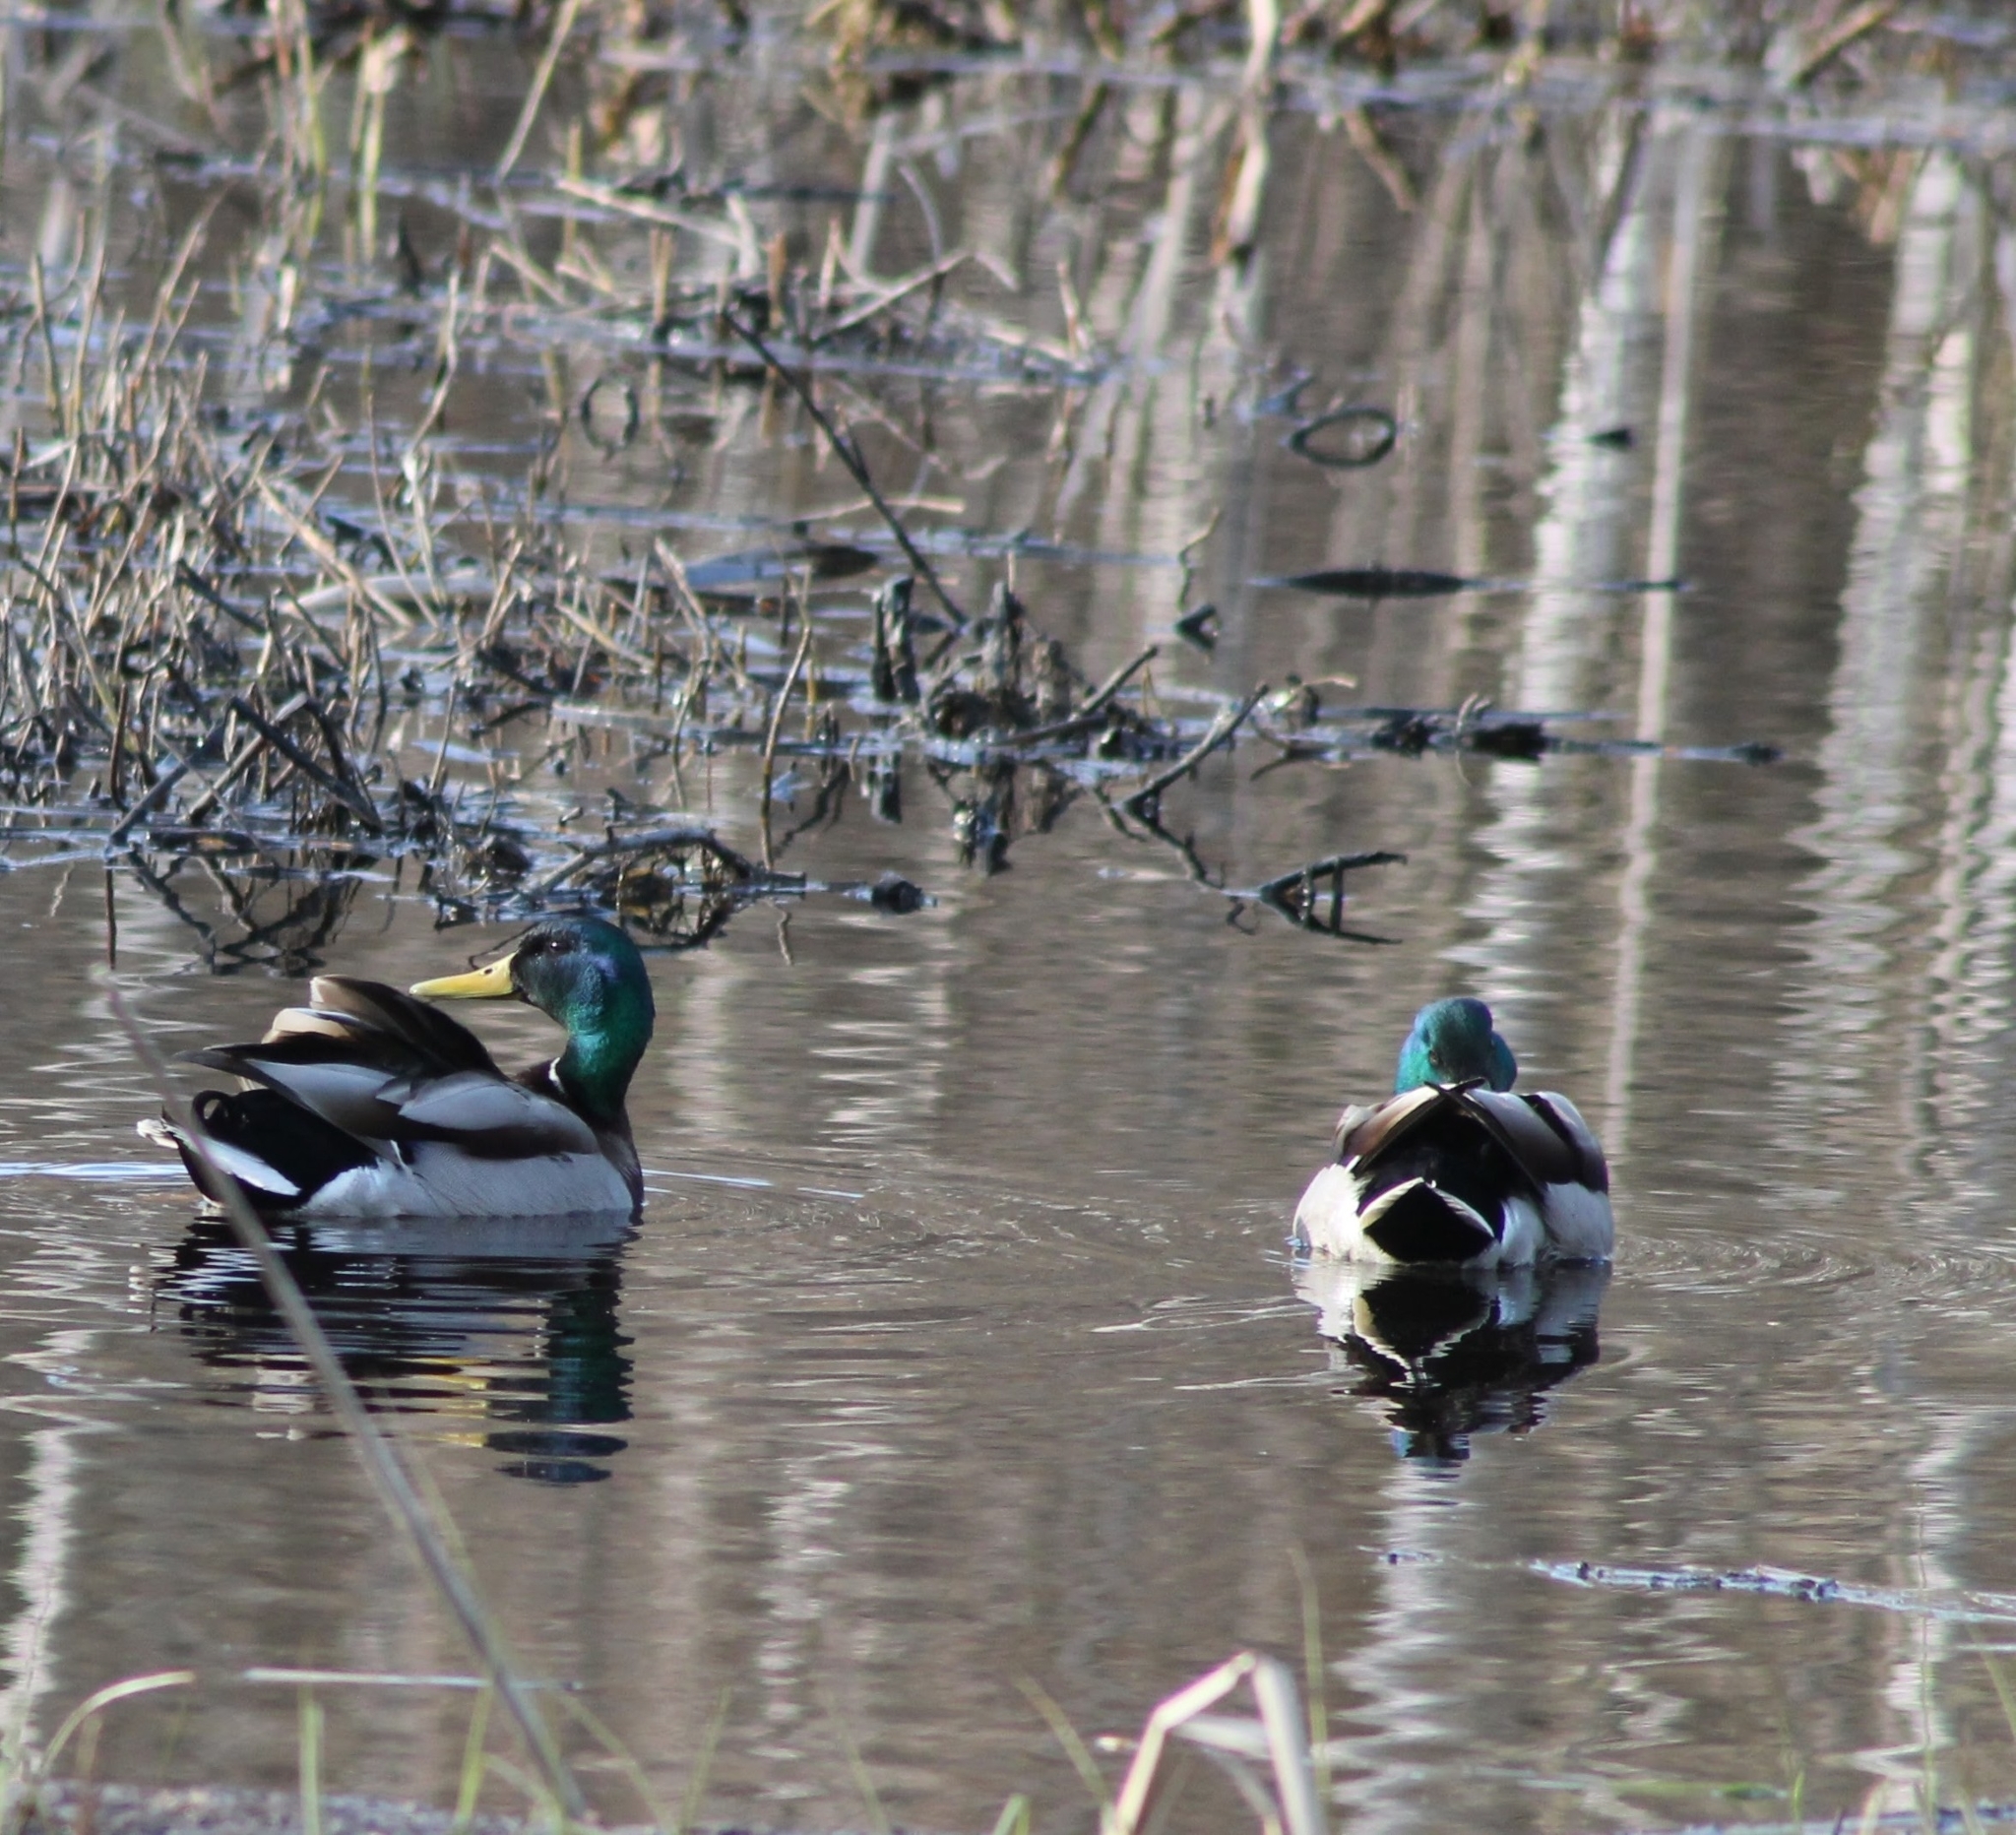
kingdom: Animalia
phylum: Chordata
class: Aves
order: Anseriformes
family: Anatidae
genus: Anas
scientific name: Anas platyrhynchos
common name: Mallard
